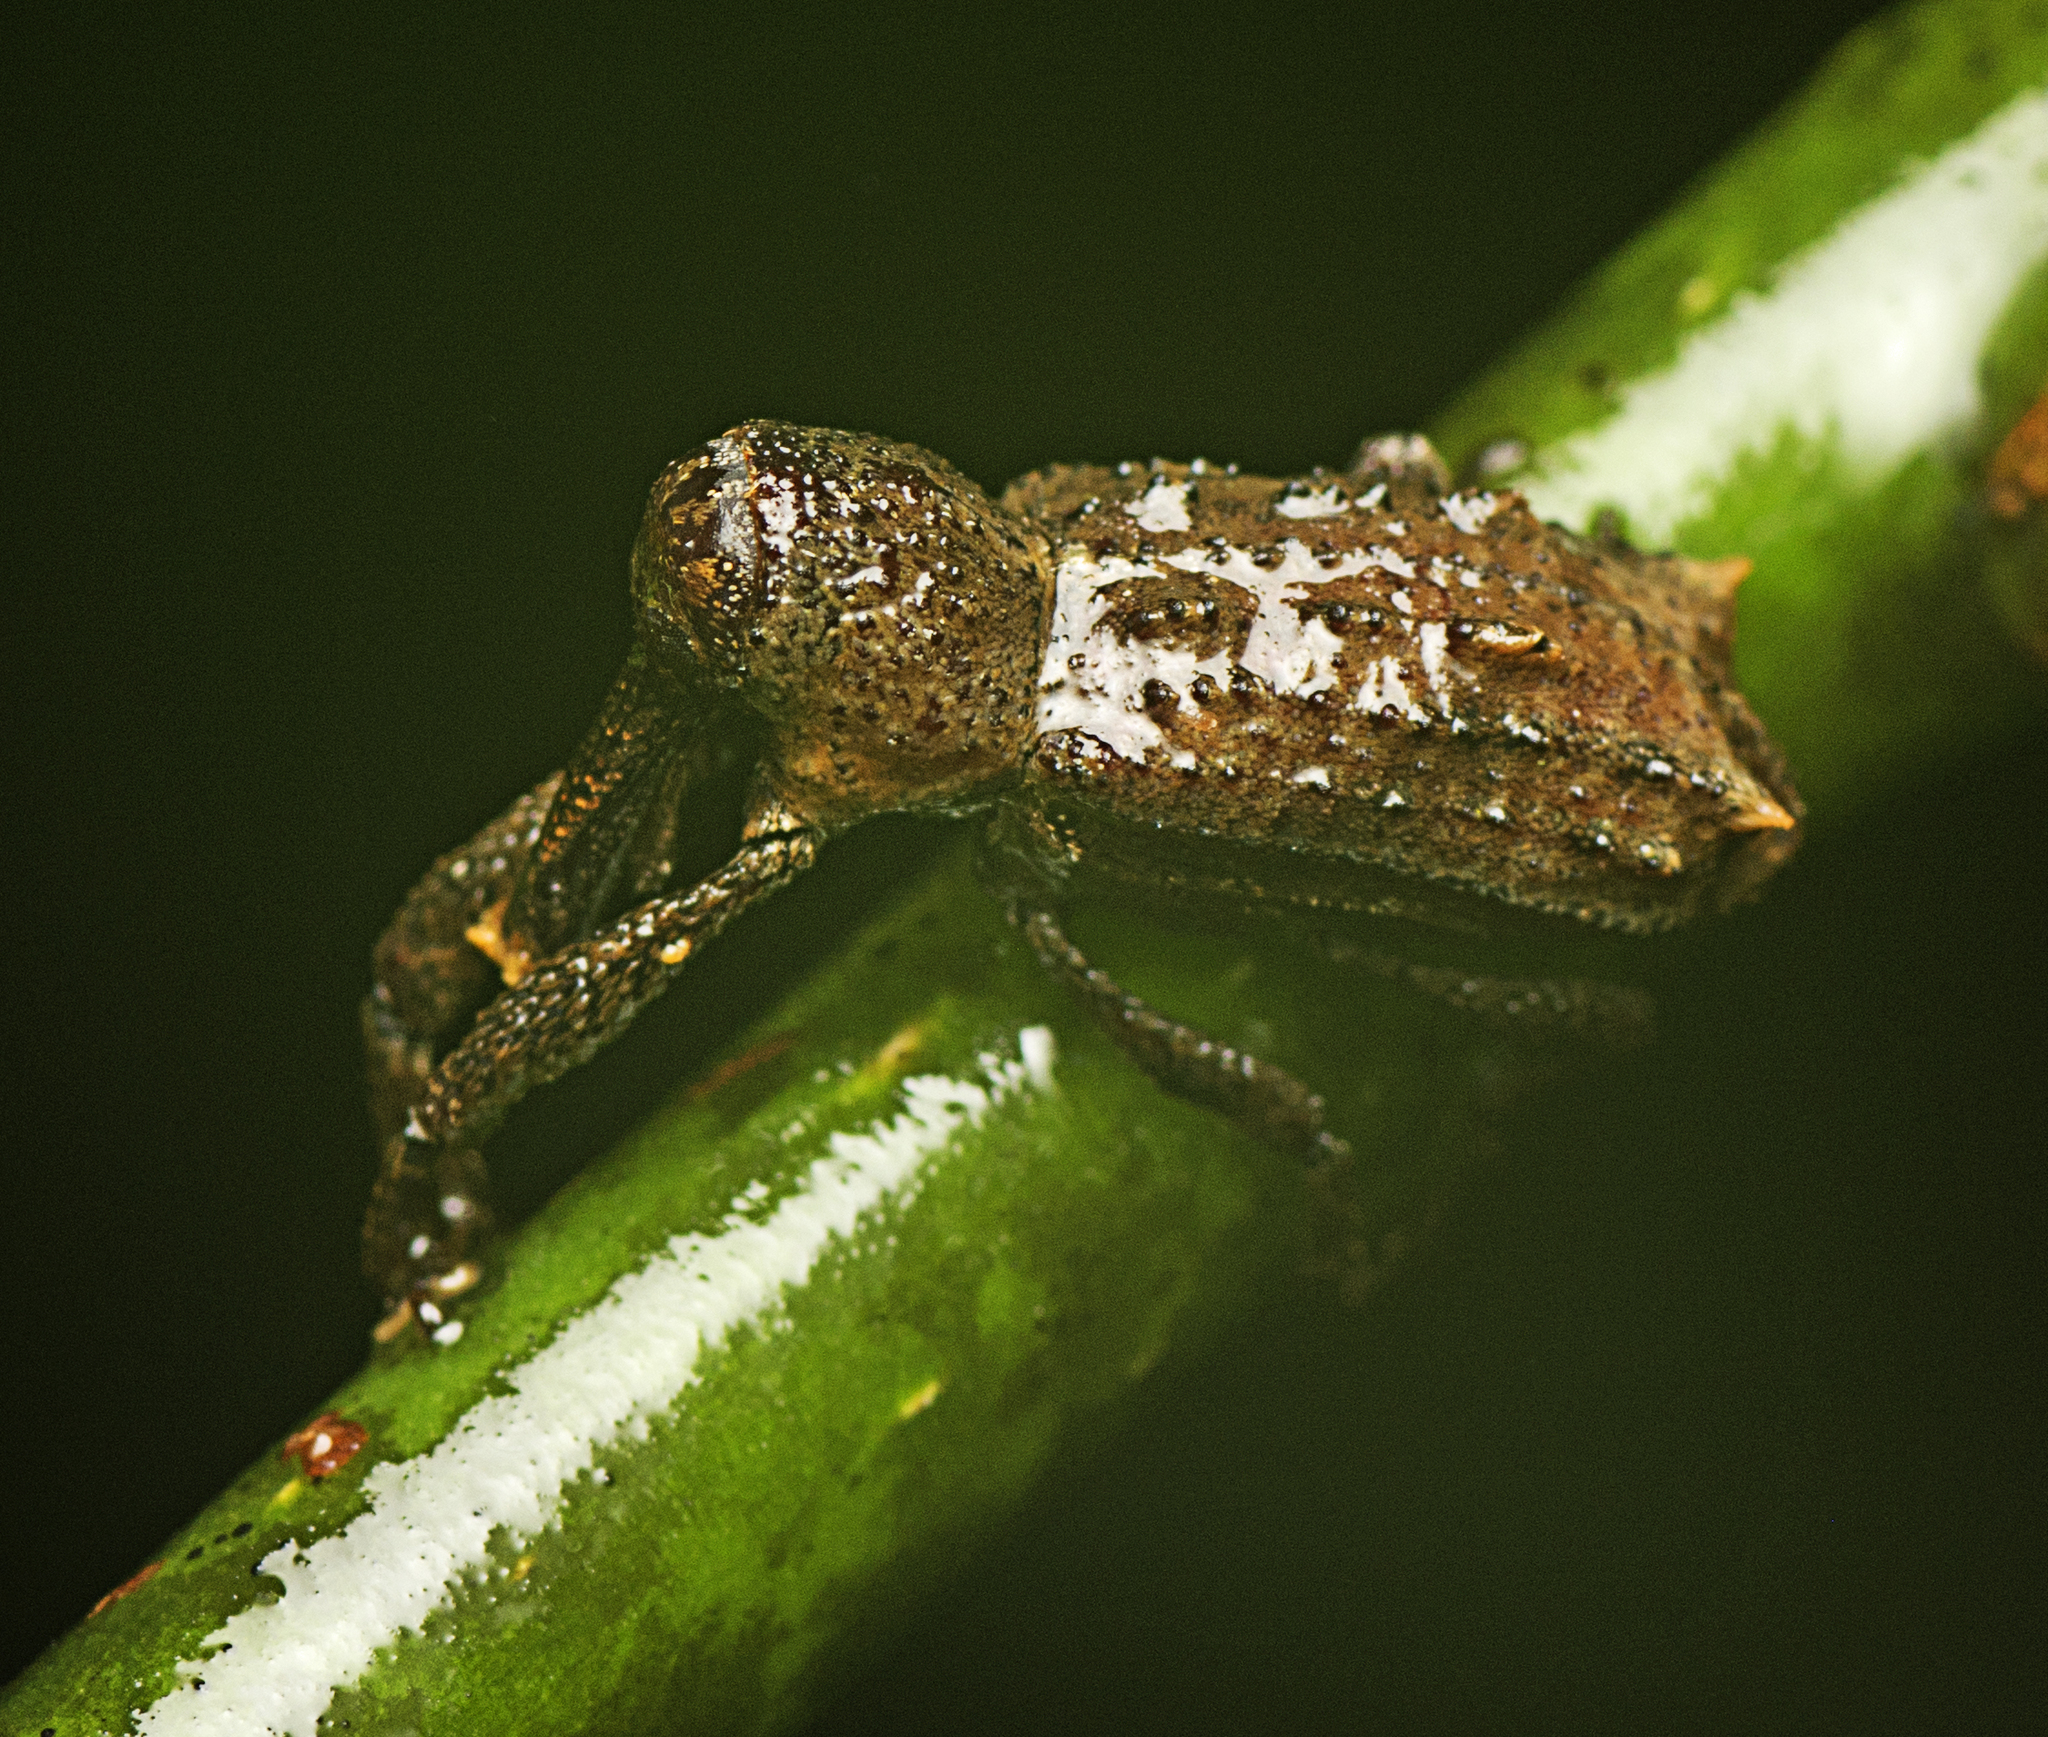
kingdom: Animalia
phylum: Arthropoda
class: Insecta
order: Coleoptera
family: Curculionidae
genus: Orthorhinus
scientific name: Orthorhinus cylindrirostris
